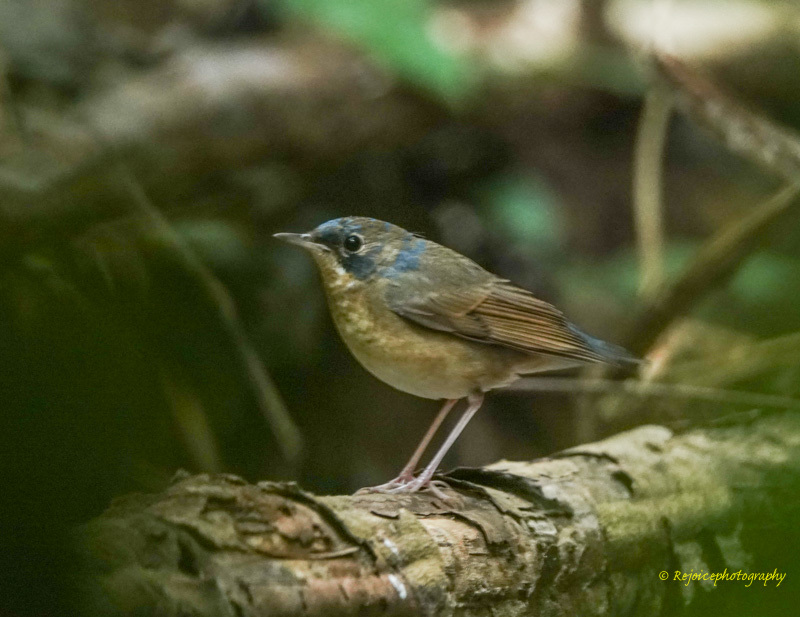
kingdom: Animalia
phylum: Chordata
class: Aves
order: Passeriformes
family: Muscicapidae
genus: Luscinia
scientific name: Luscinia cyane
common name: Siberian blue robin
